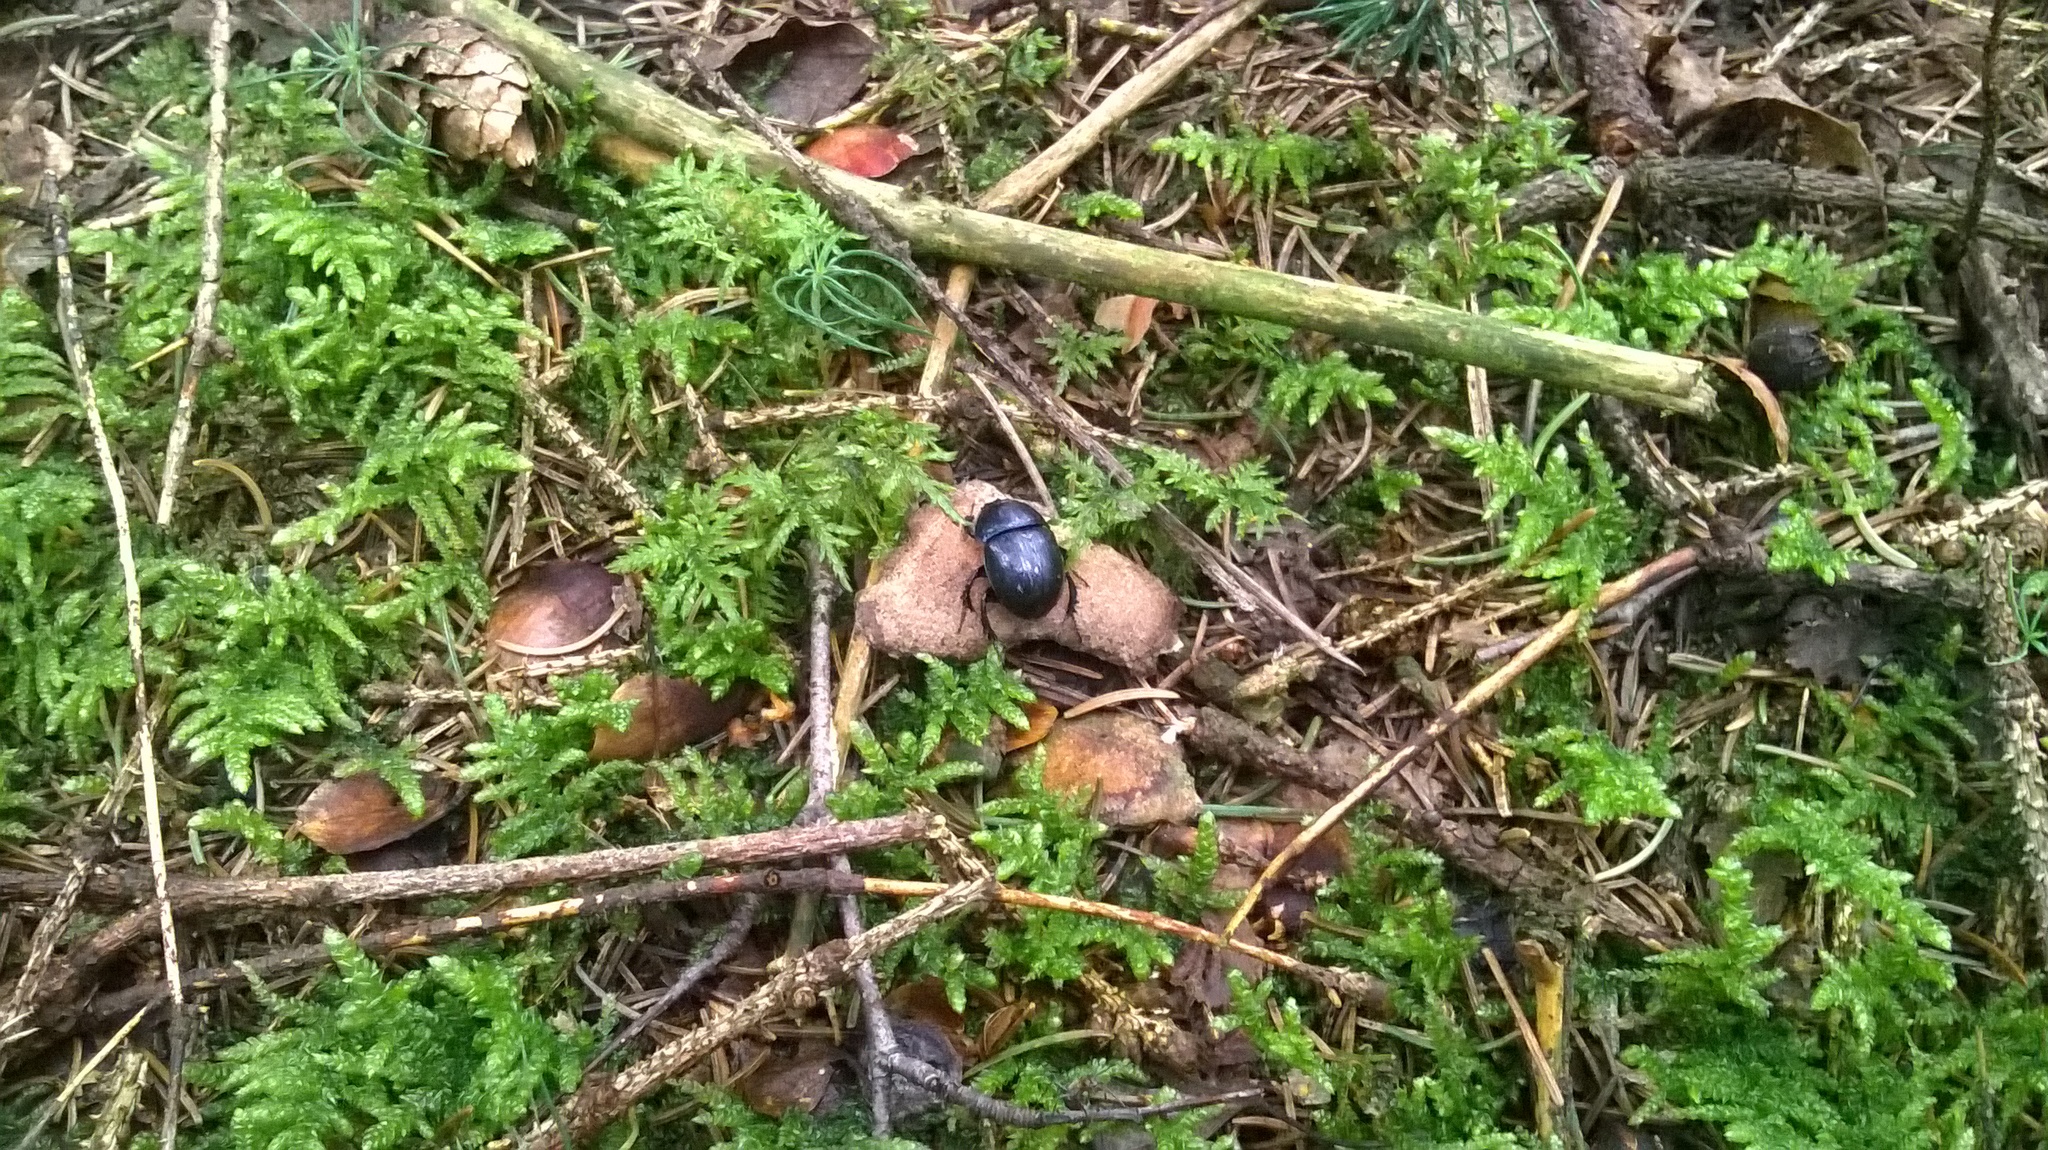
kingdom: Animalia
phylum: Arthropoda
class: Insecta
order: Coleoptera
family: Geotrupidae
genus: Anoplotrupes
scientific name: Anoplotrupes stercorosus
